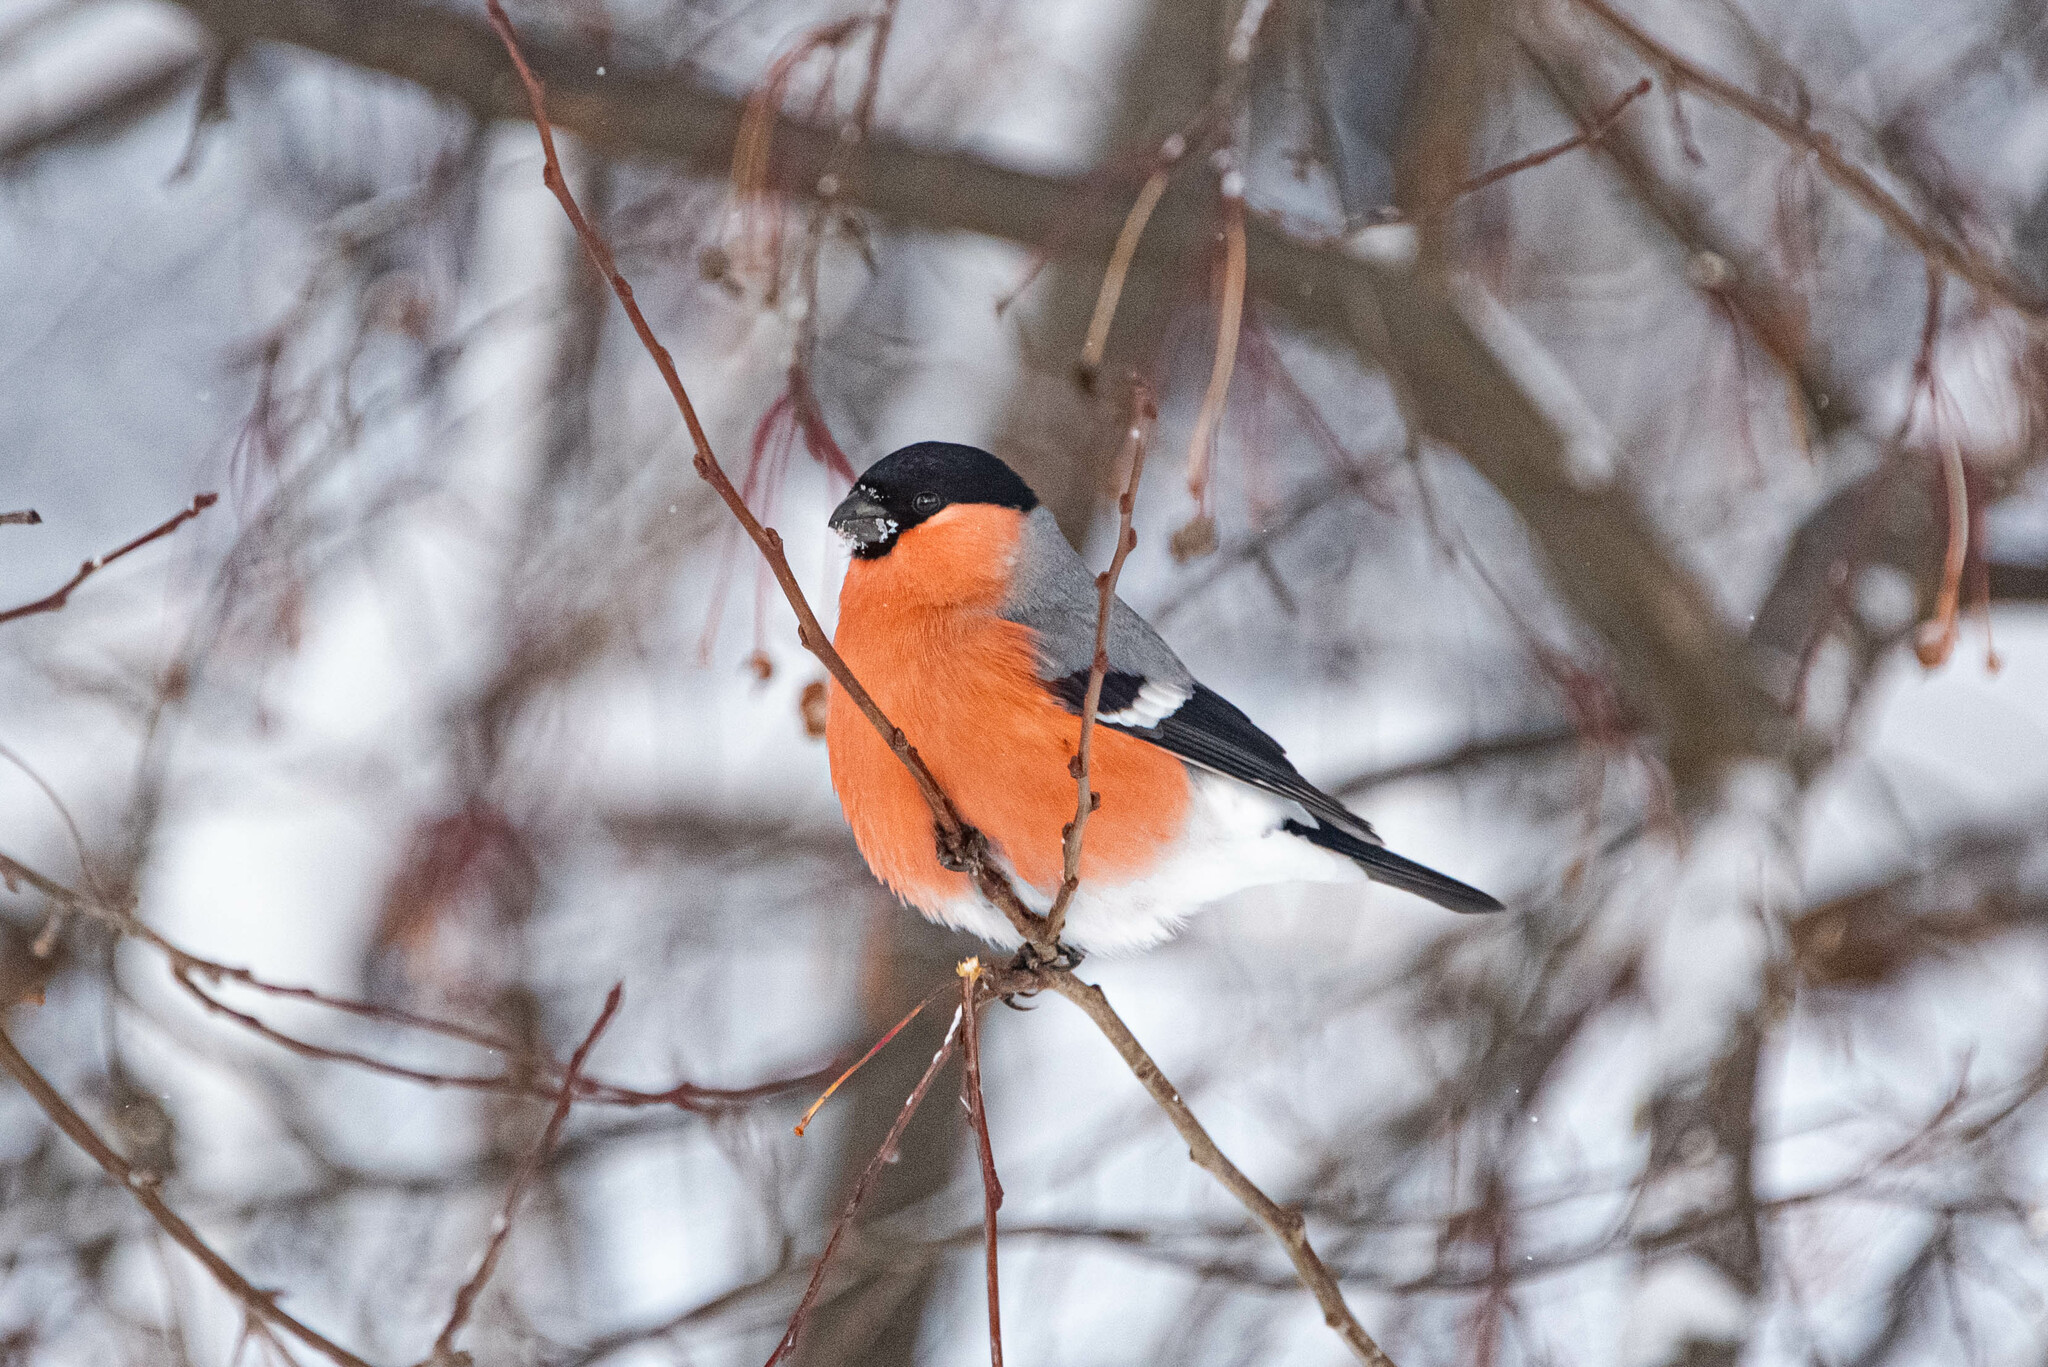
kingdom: Animalia
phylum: Chordata
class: Aves
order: Passeriformes
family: Fringillidae
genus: Pyrrhula
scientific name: Pyrrhula pyrrhula
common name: Eurasian bullfinch
